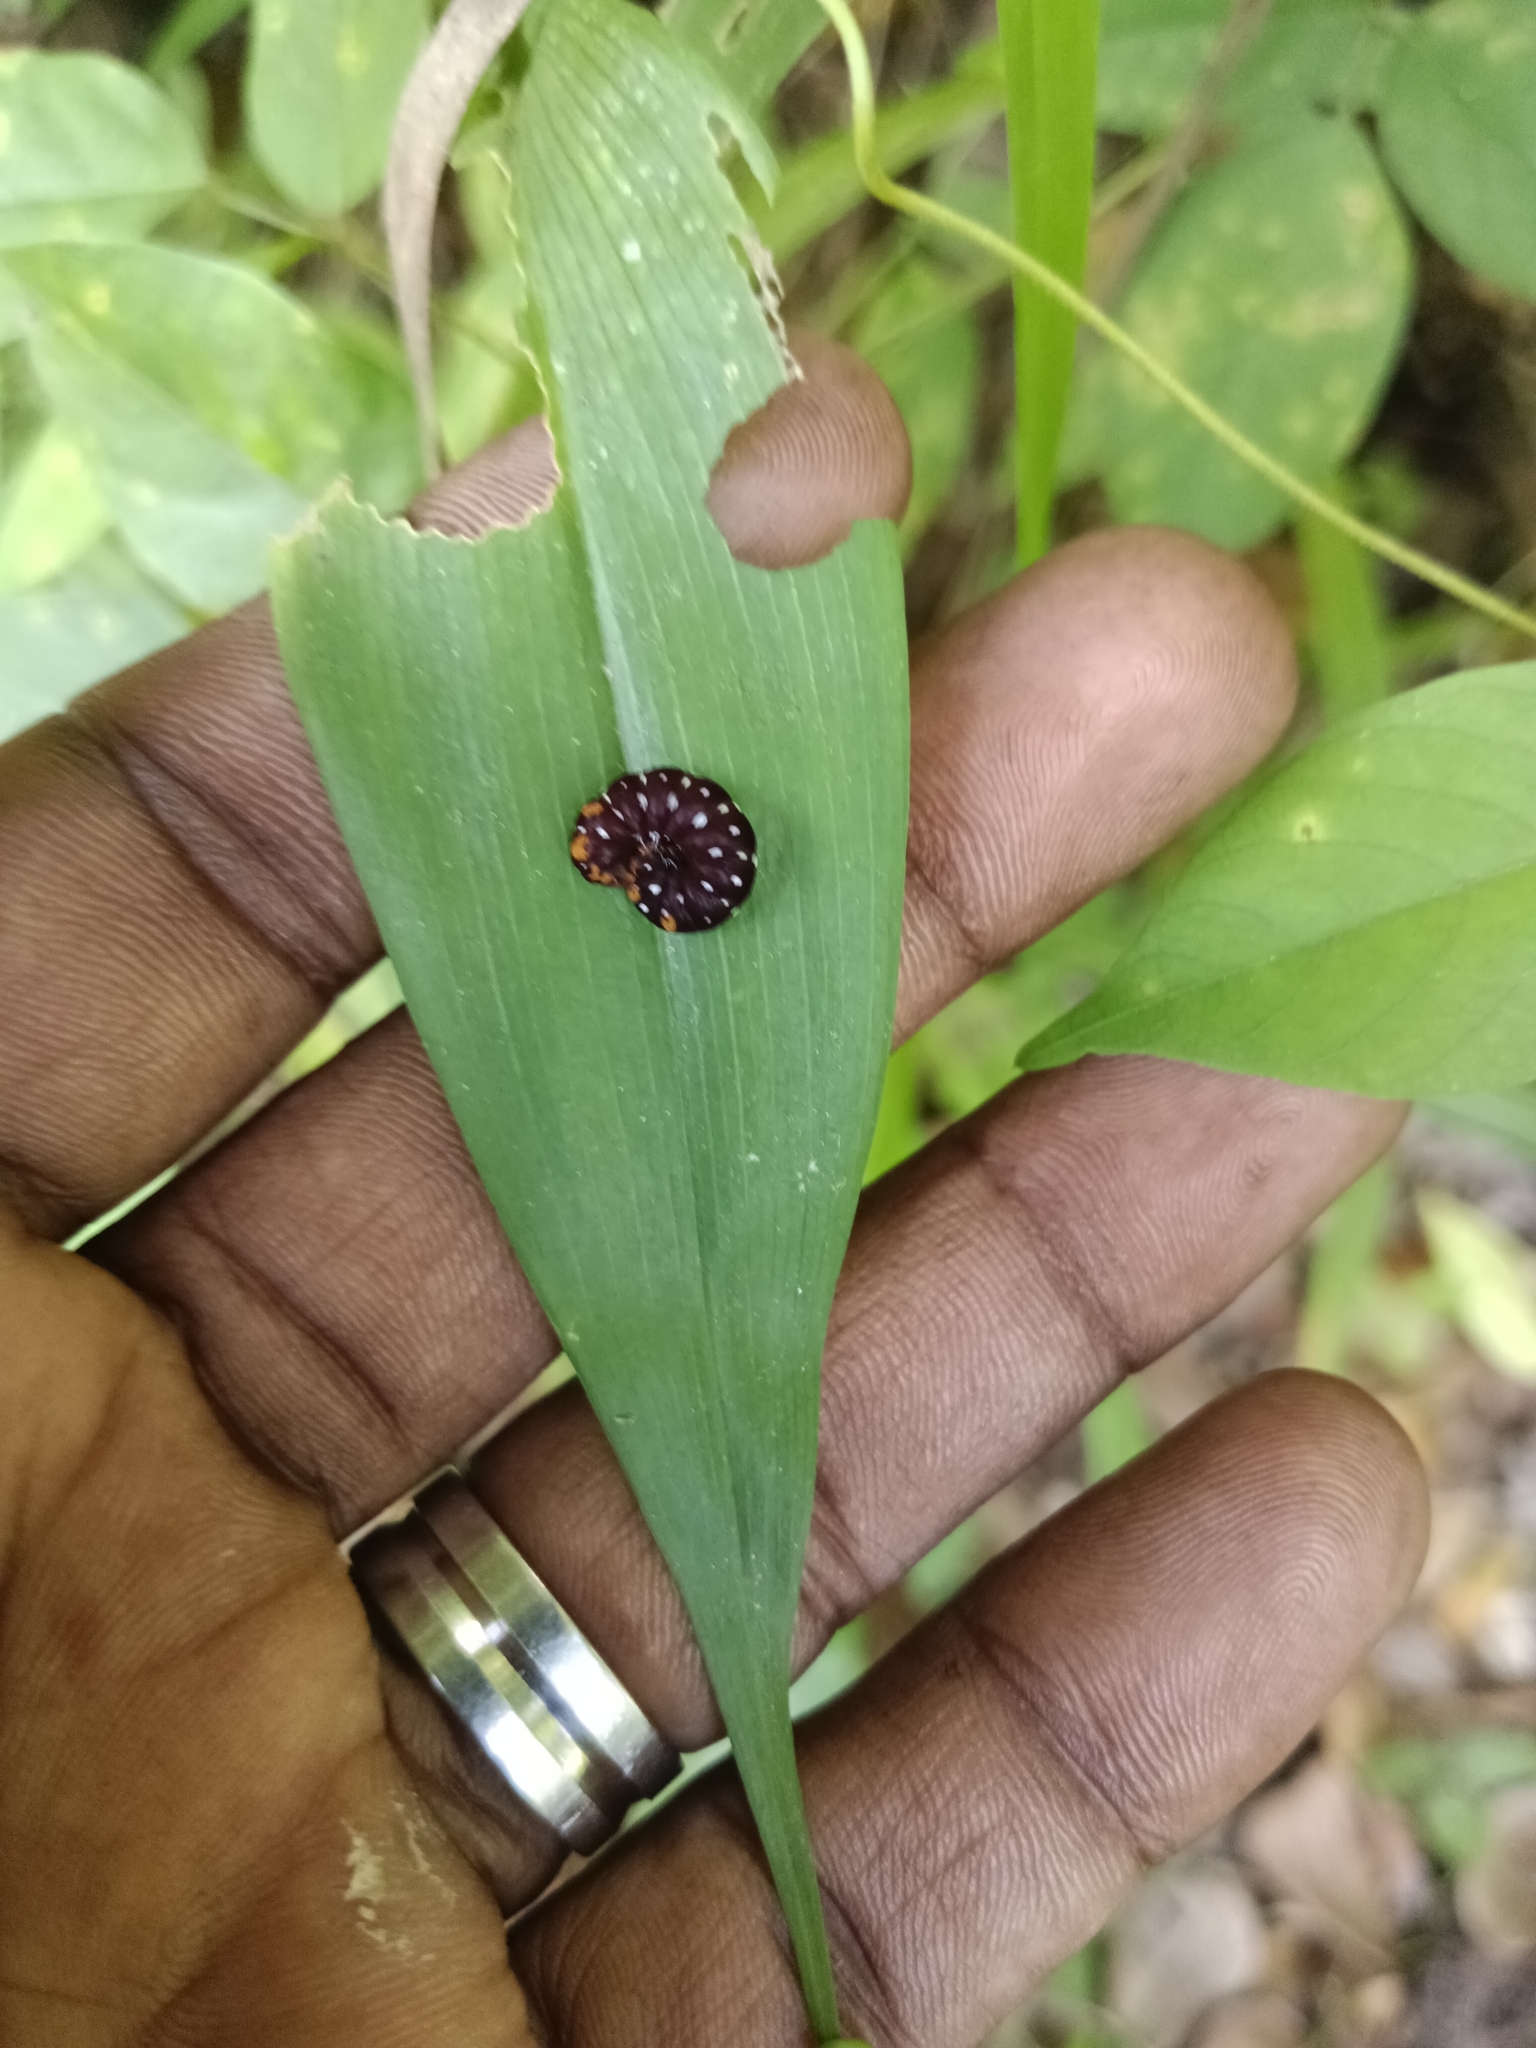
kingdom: Animalia
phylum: Arthropoda
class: Insecta
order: Lepidoptera
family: Noctuidae
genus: Polytela
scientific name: Polytela gloriosae
